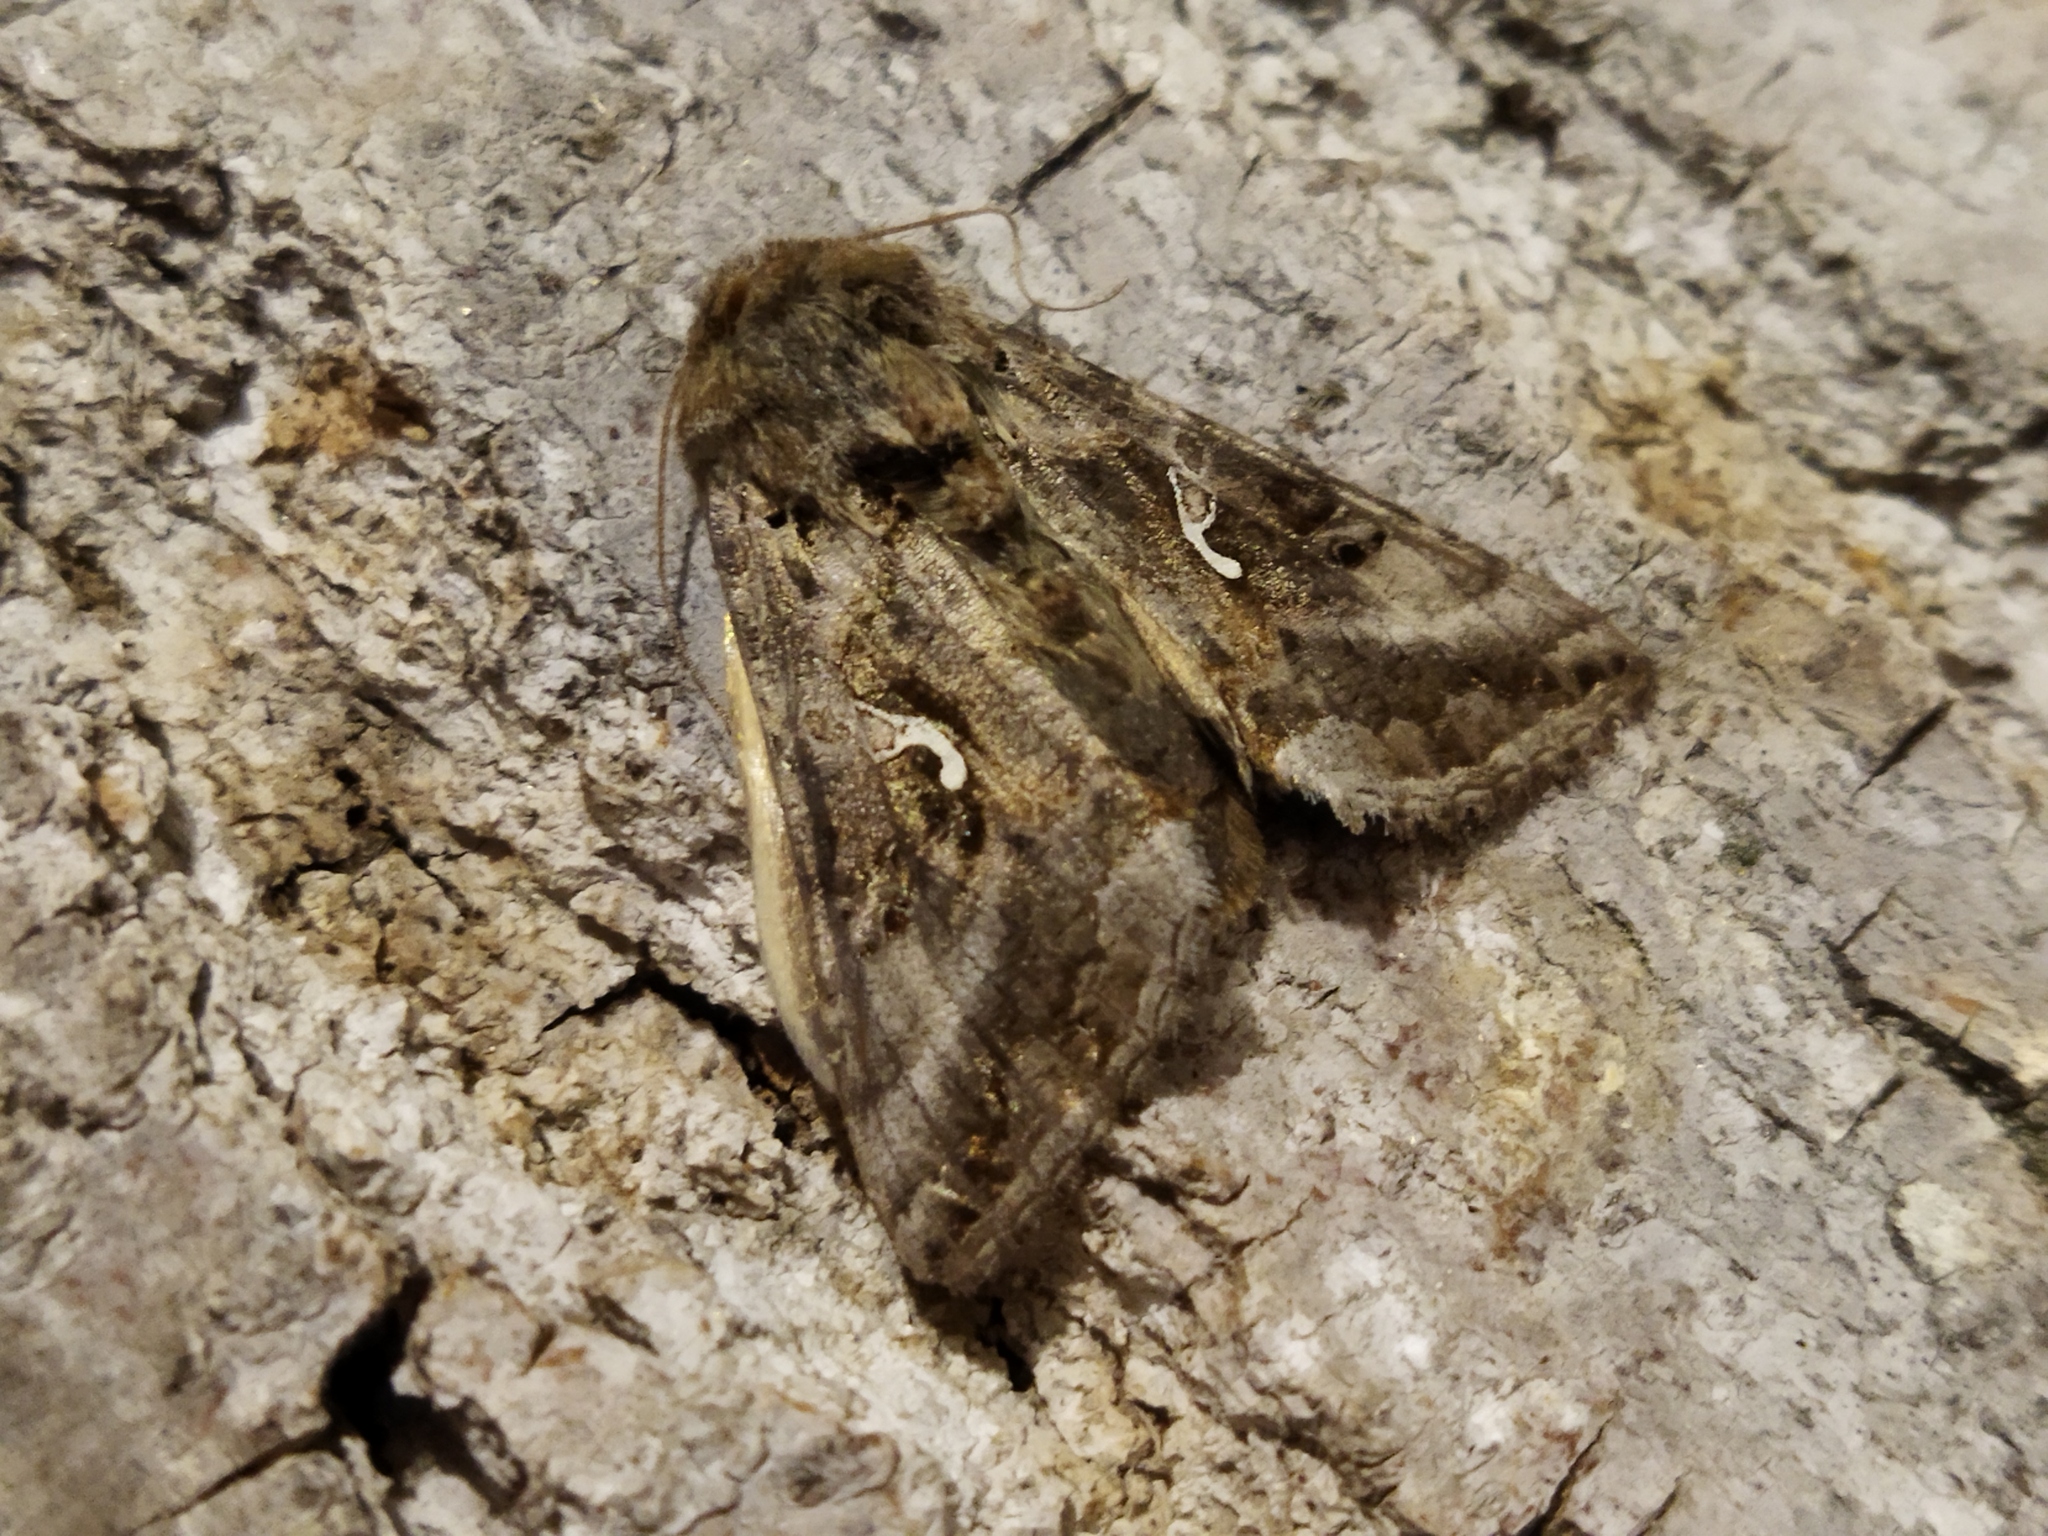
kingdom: Animalia
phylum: Arthropoda
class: Insecta
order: Lepidoptera
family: Noctuidae
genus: Autographa
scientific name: Autographa gamma
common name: Silver y
